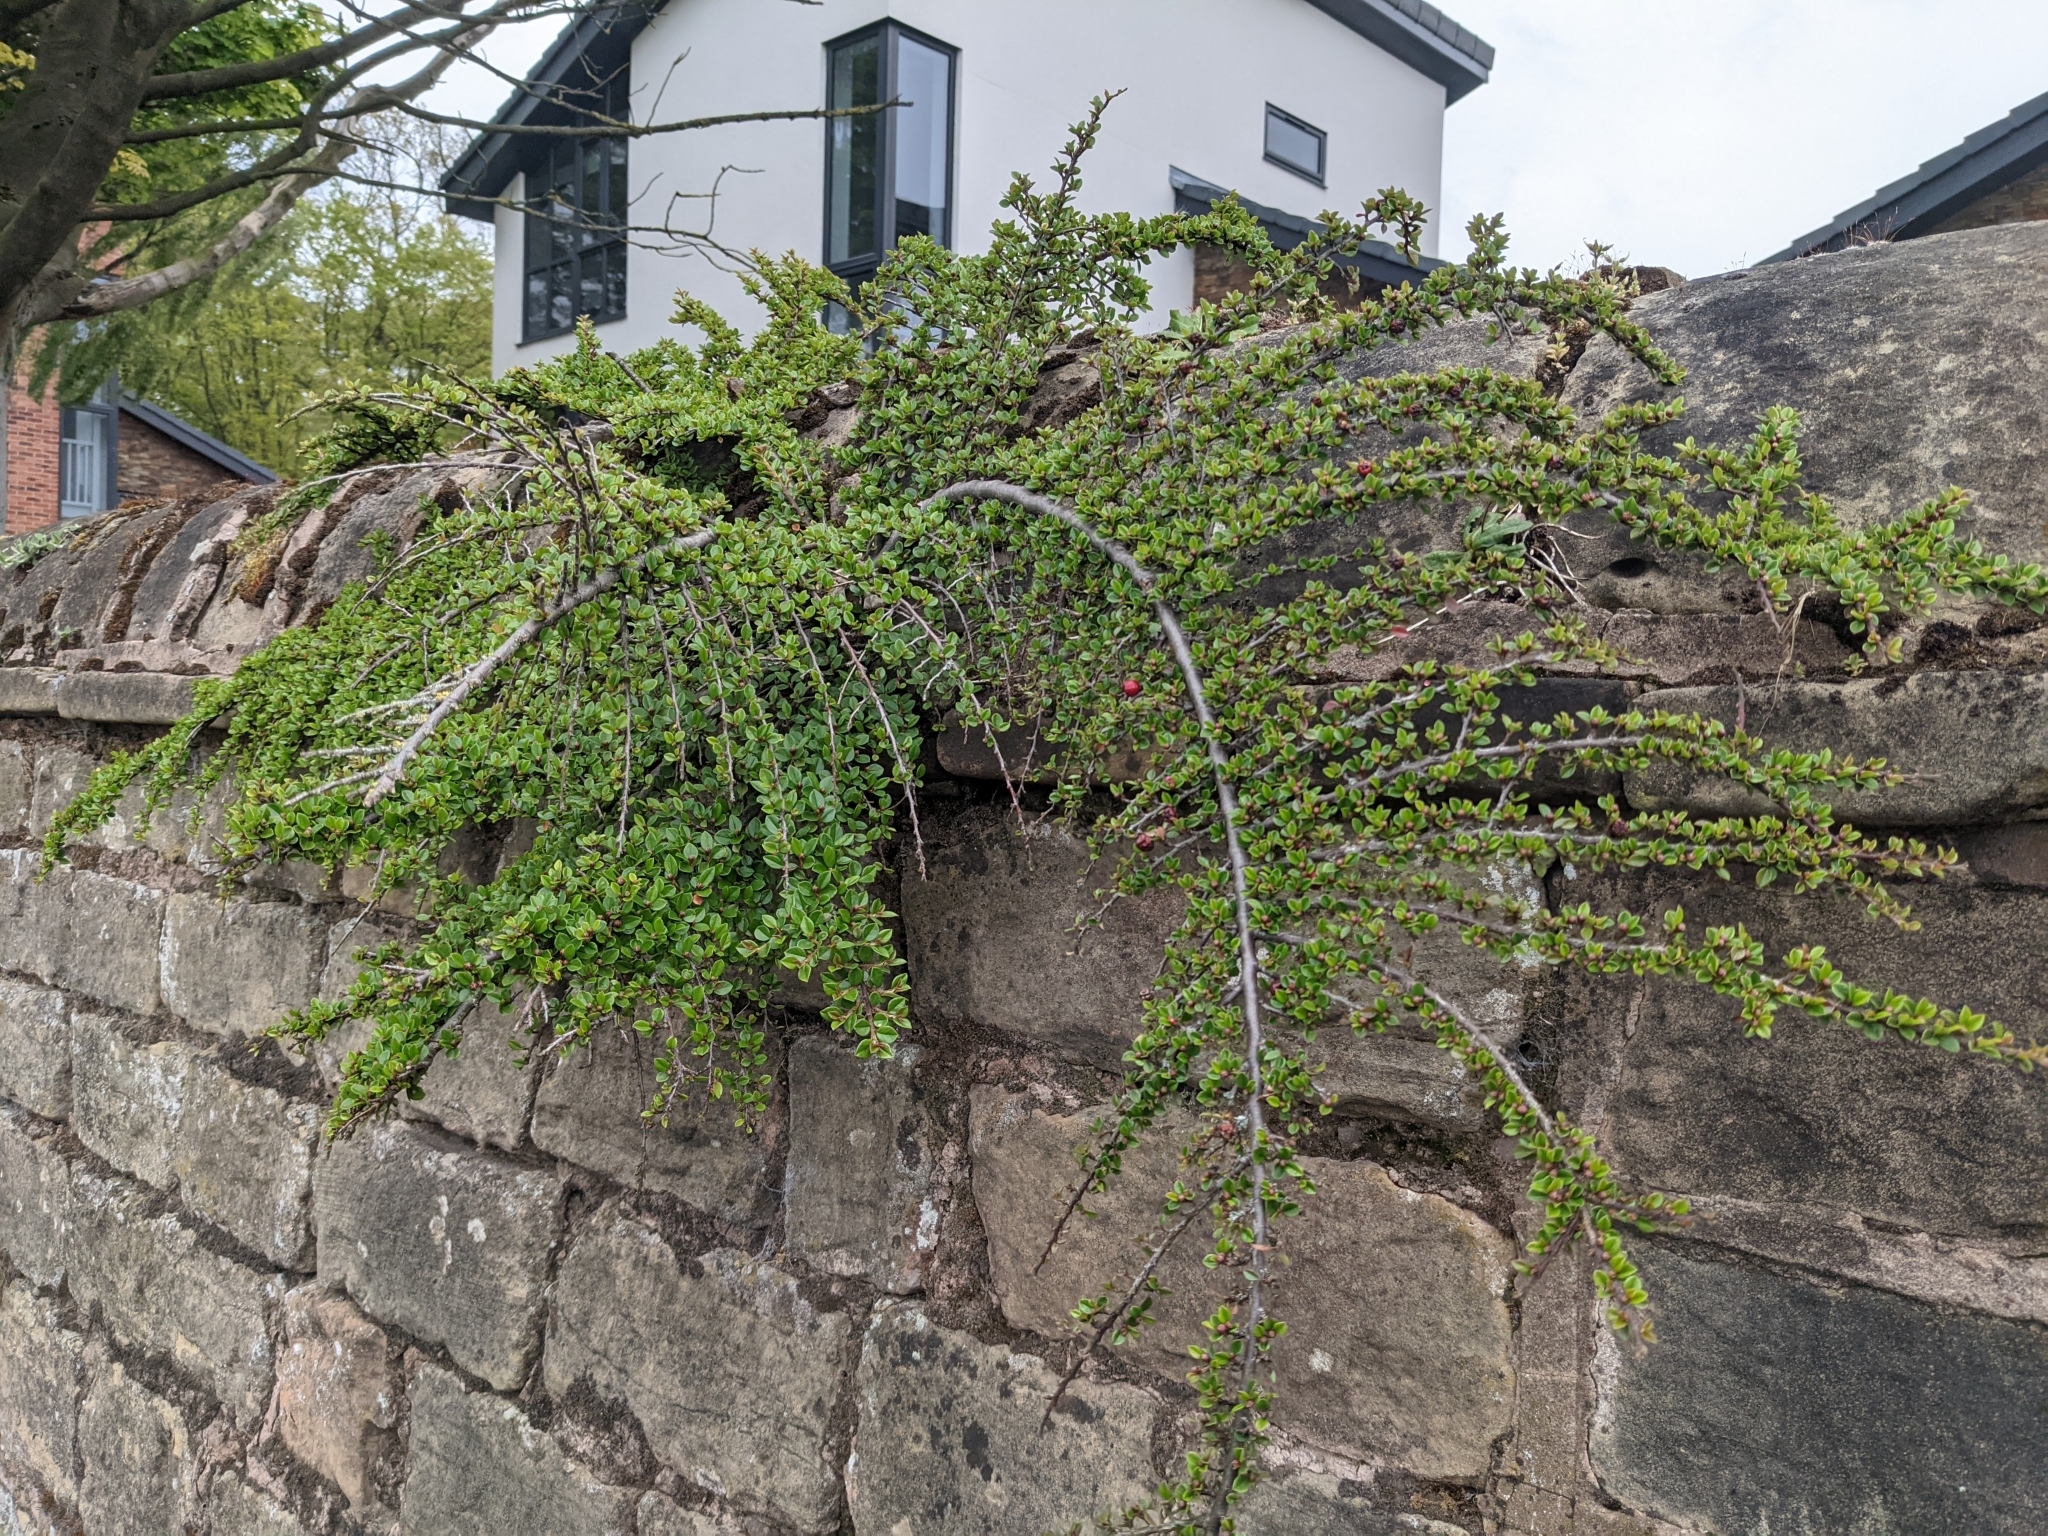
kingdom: Plantae
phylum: Tracheophyta
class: Magnoliopsida
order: Rosales
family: Rosaceae
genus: Cotoneaster
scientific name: Cotoneaster horizontalis
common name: Wall cotoneaster
